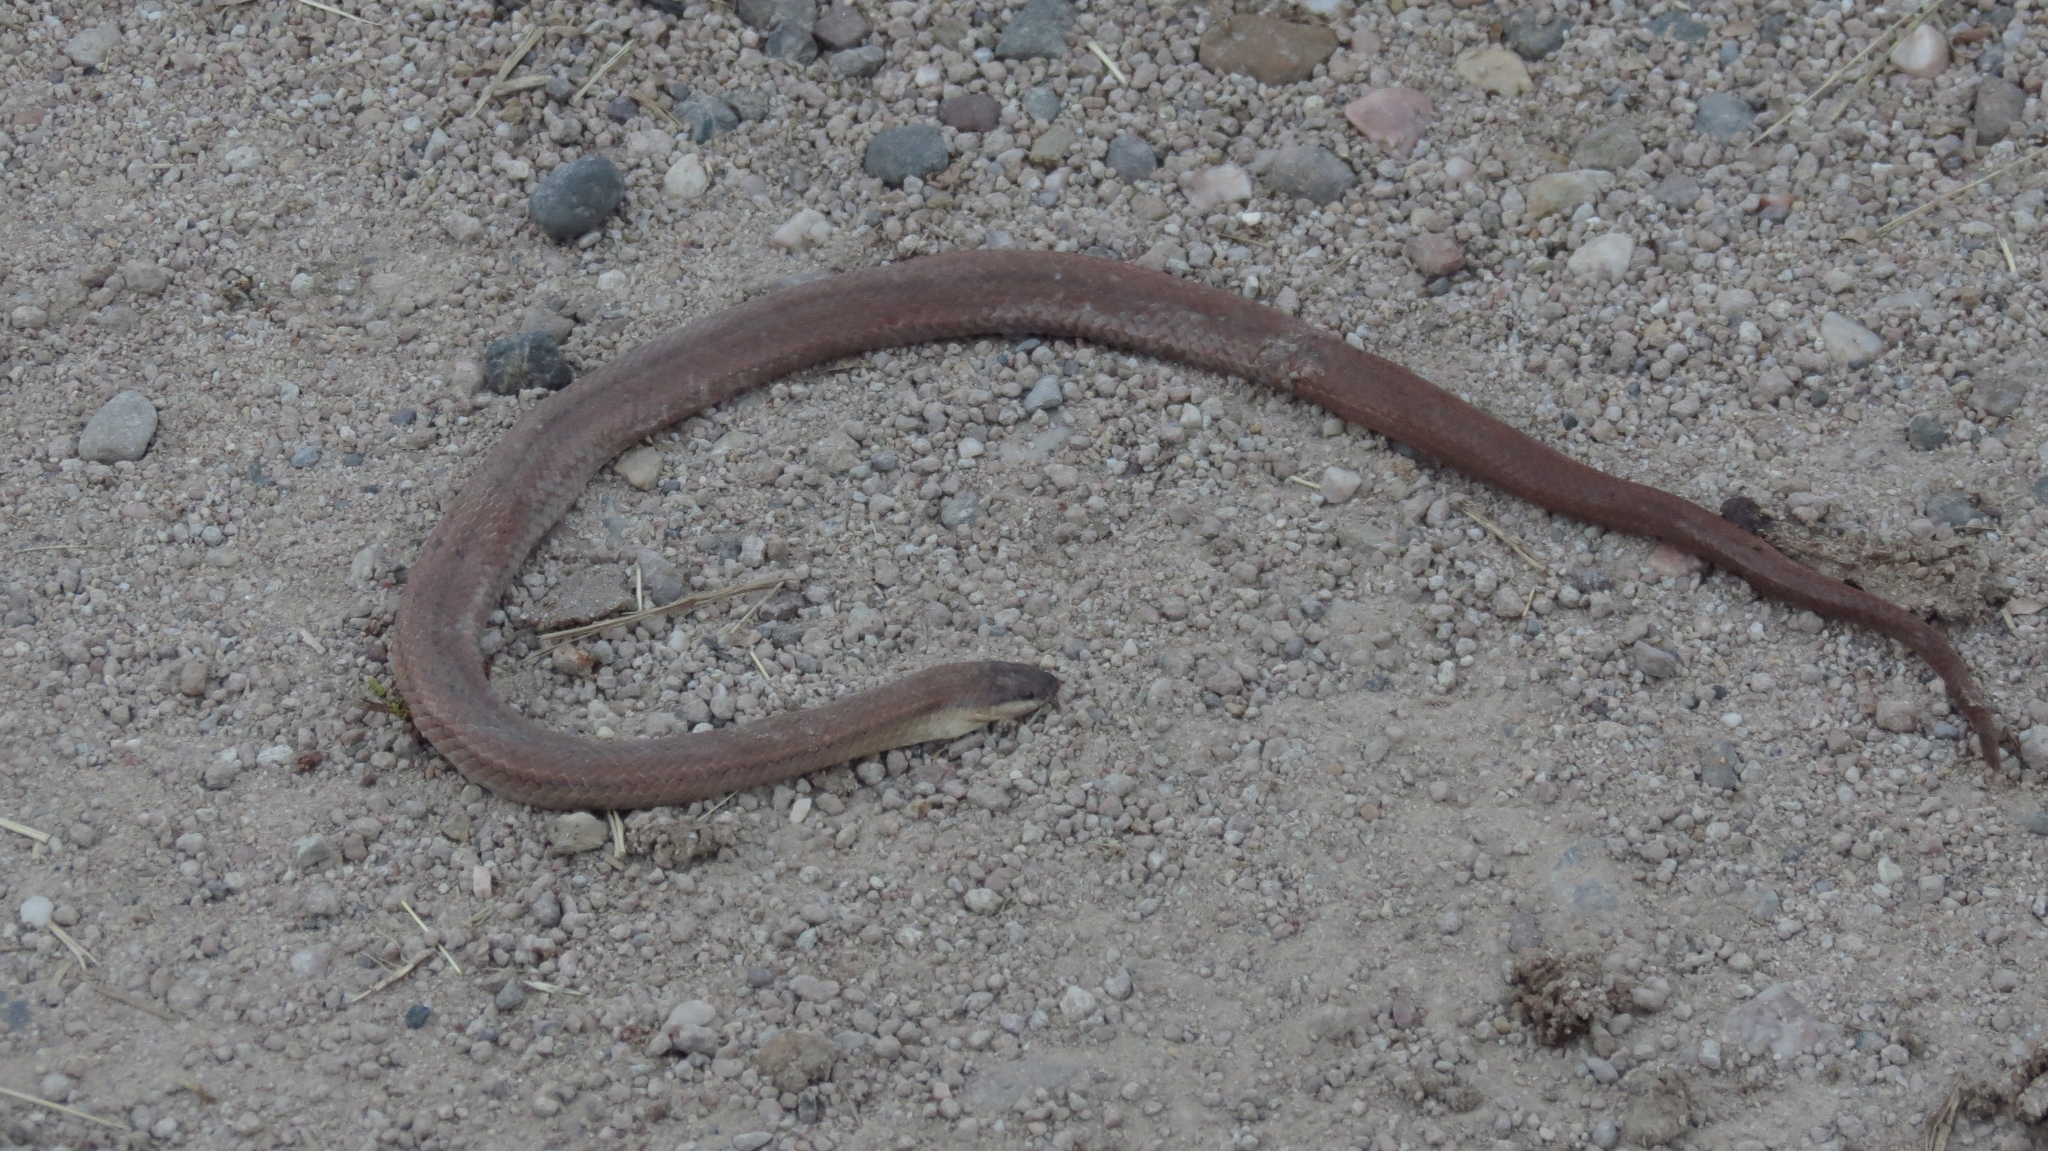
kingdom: Animalia
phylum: Chordata
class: Squamata
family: Colubridae
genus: Stenorrhina
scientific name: Stenorrhina freminvillei
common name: Blood snake
